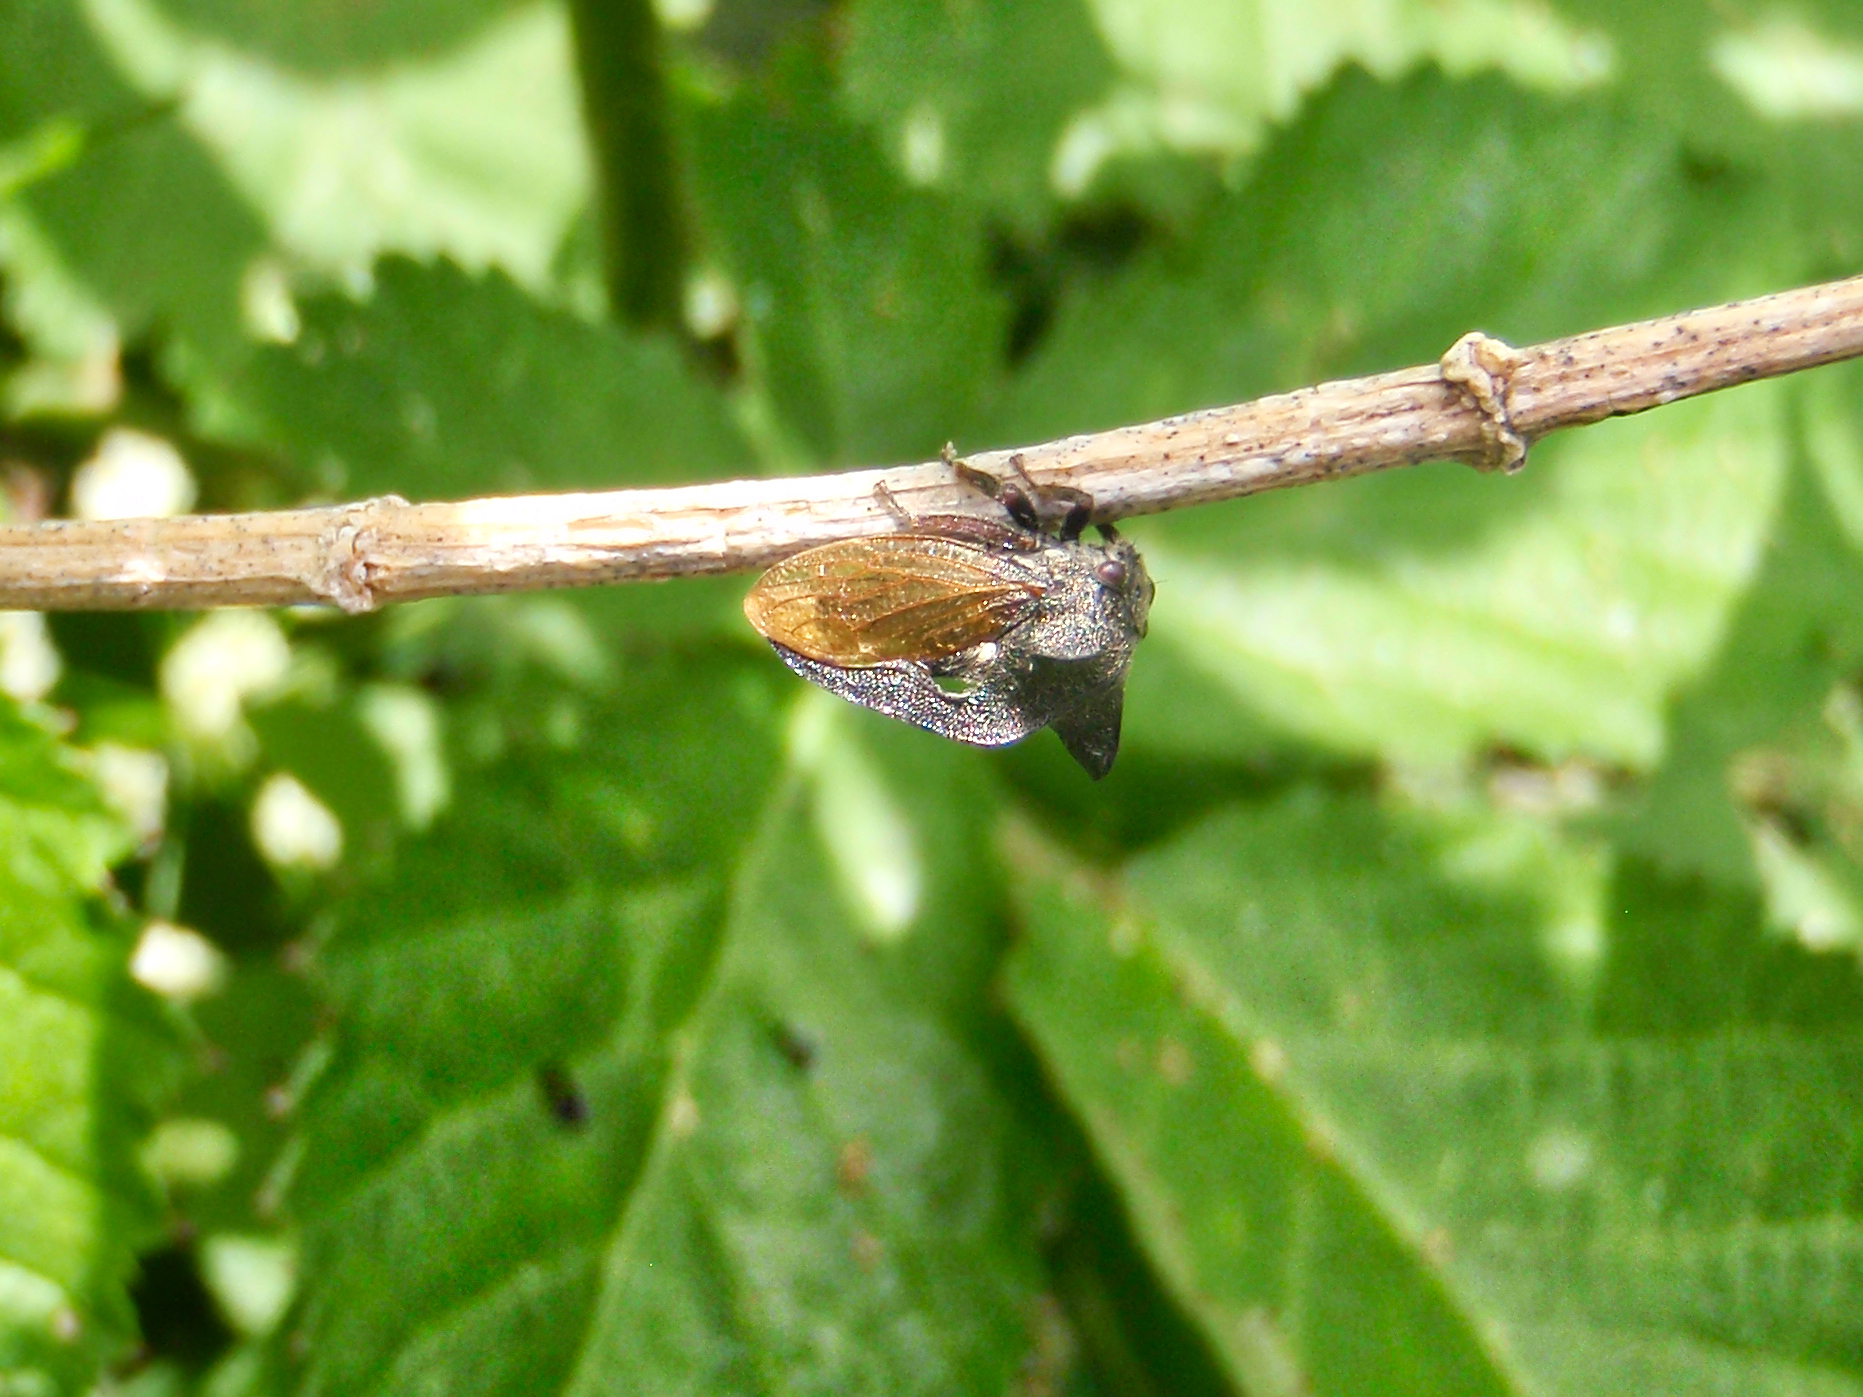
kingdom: Animalia
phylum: Arthropoda
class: Insecta
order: Hemiptera
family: Membracidae
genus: Centrotus
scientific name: Centrotus cornuta
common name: Treehopper
